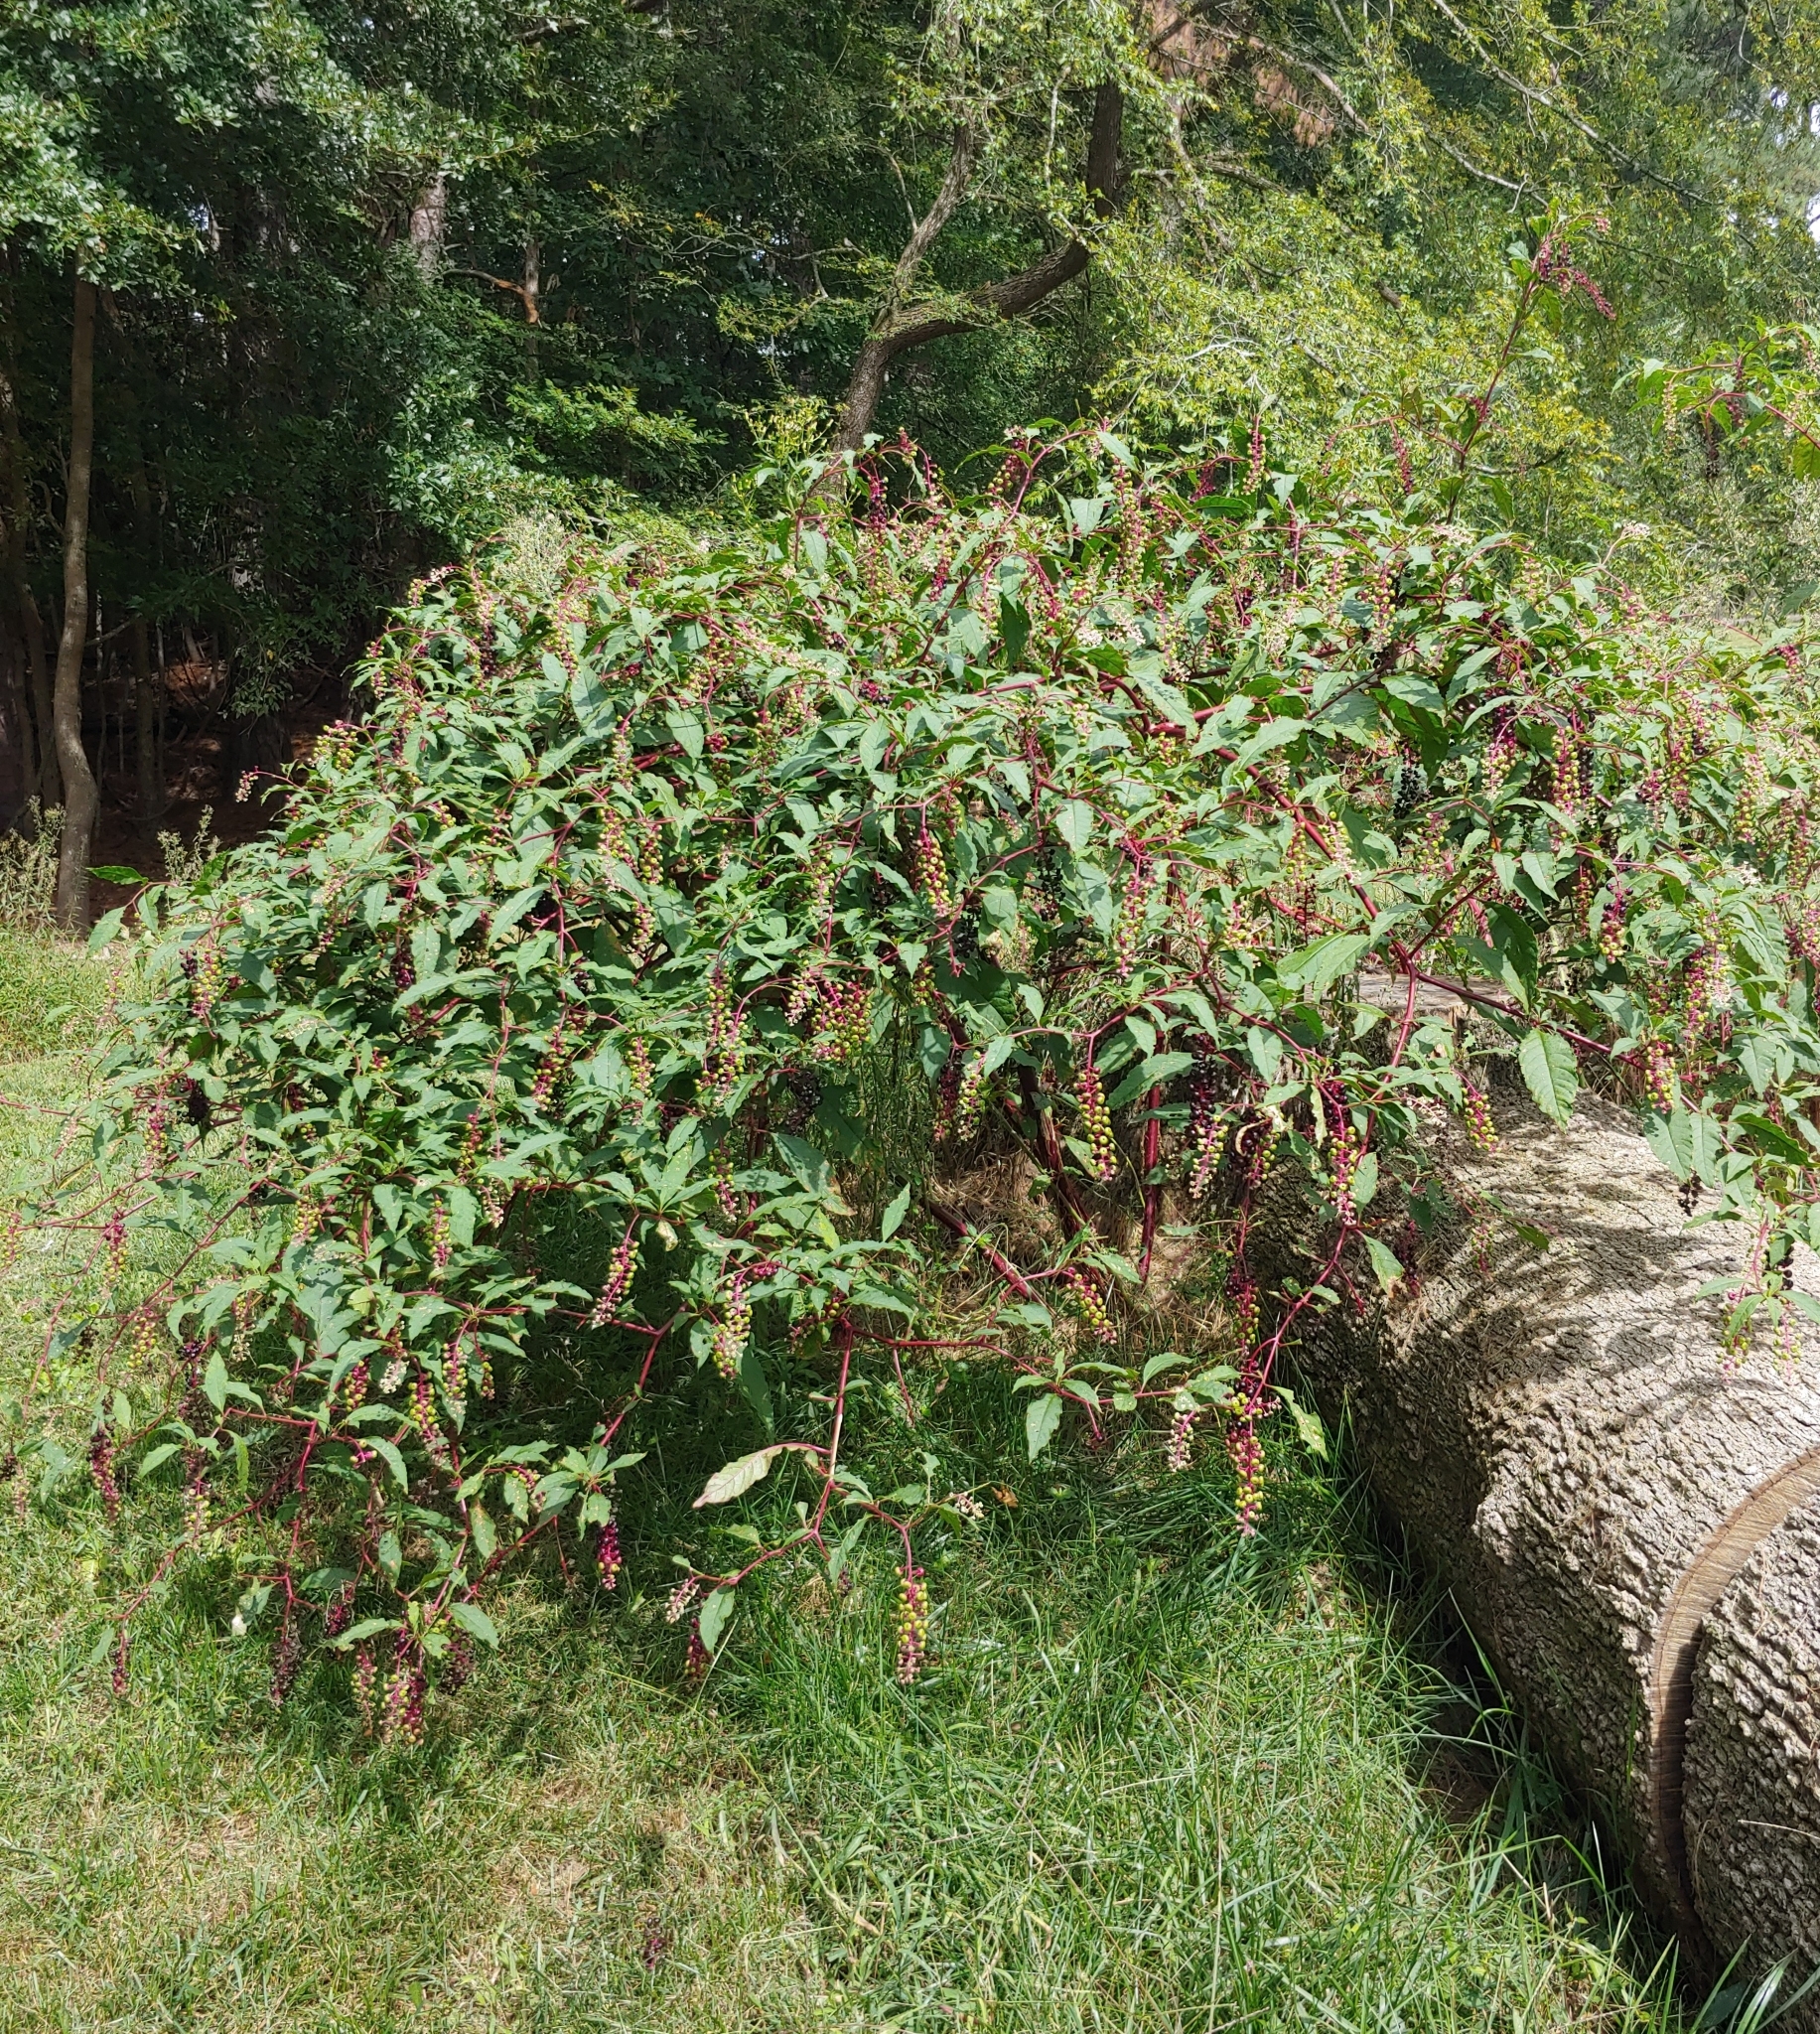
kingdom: Plantae
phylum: Tracheophyta
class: Magnoliopsida
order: Caryophyllales
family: Phytolaccaceae
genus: Phytolacca
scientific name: Phytolacca americana
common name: American pokeweed
